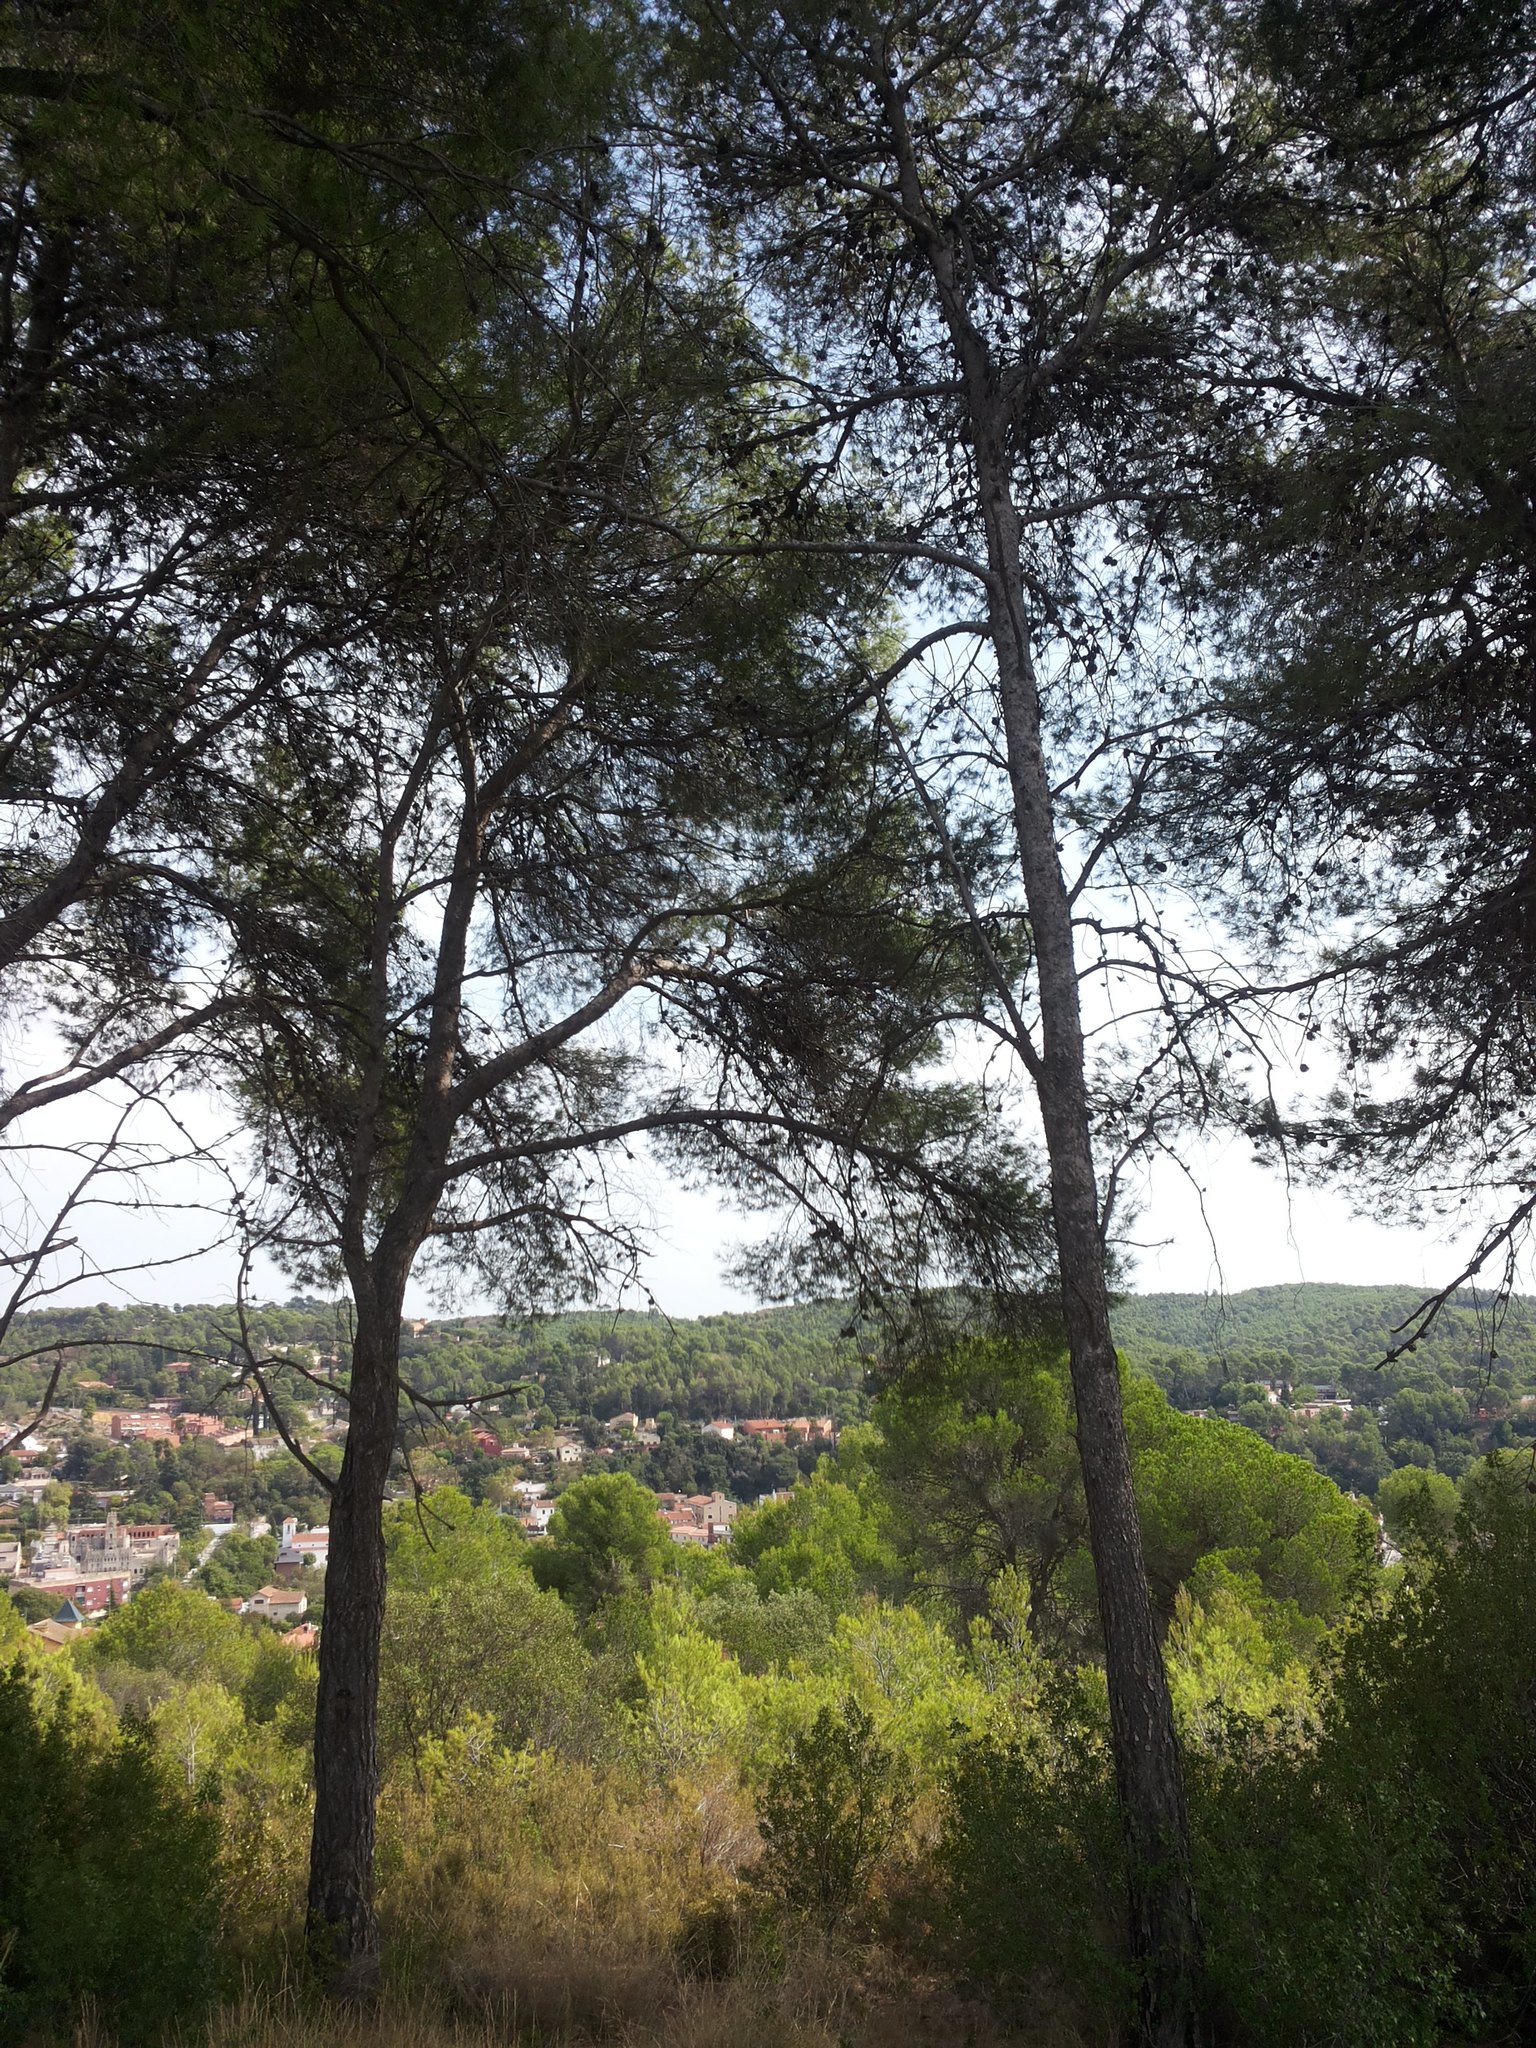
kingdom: Plantae
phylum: Tracheophyta
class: Pinopsida
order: Pinales
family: Pinaceae
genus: Pinus
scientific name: Pinus halepensis
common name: Aleppo pine
